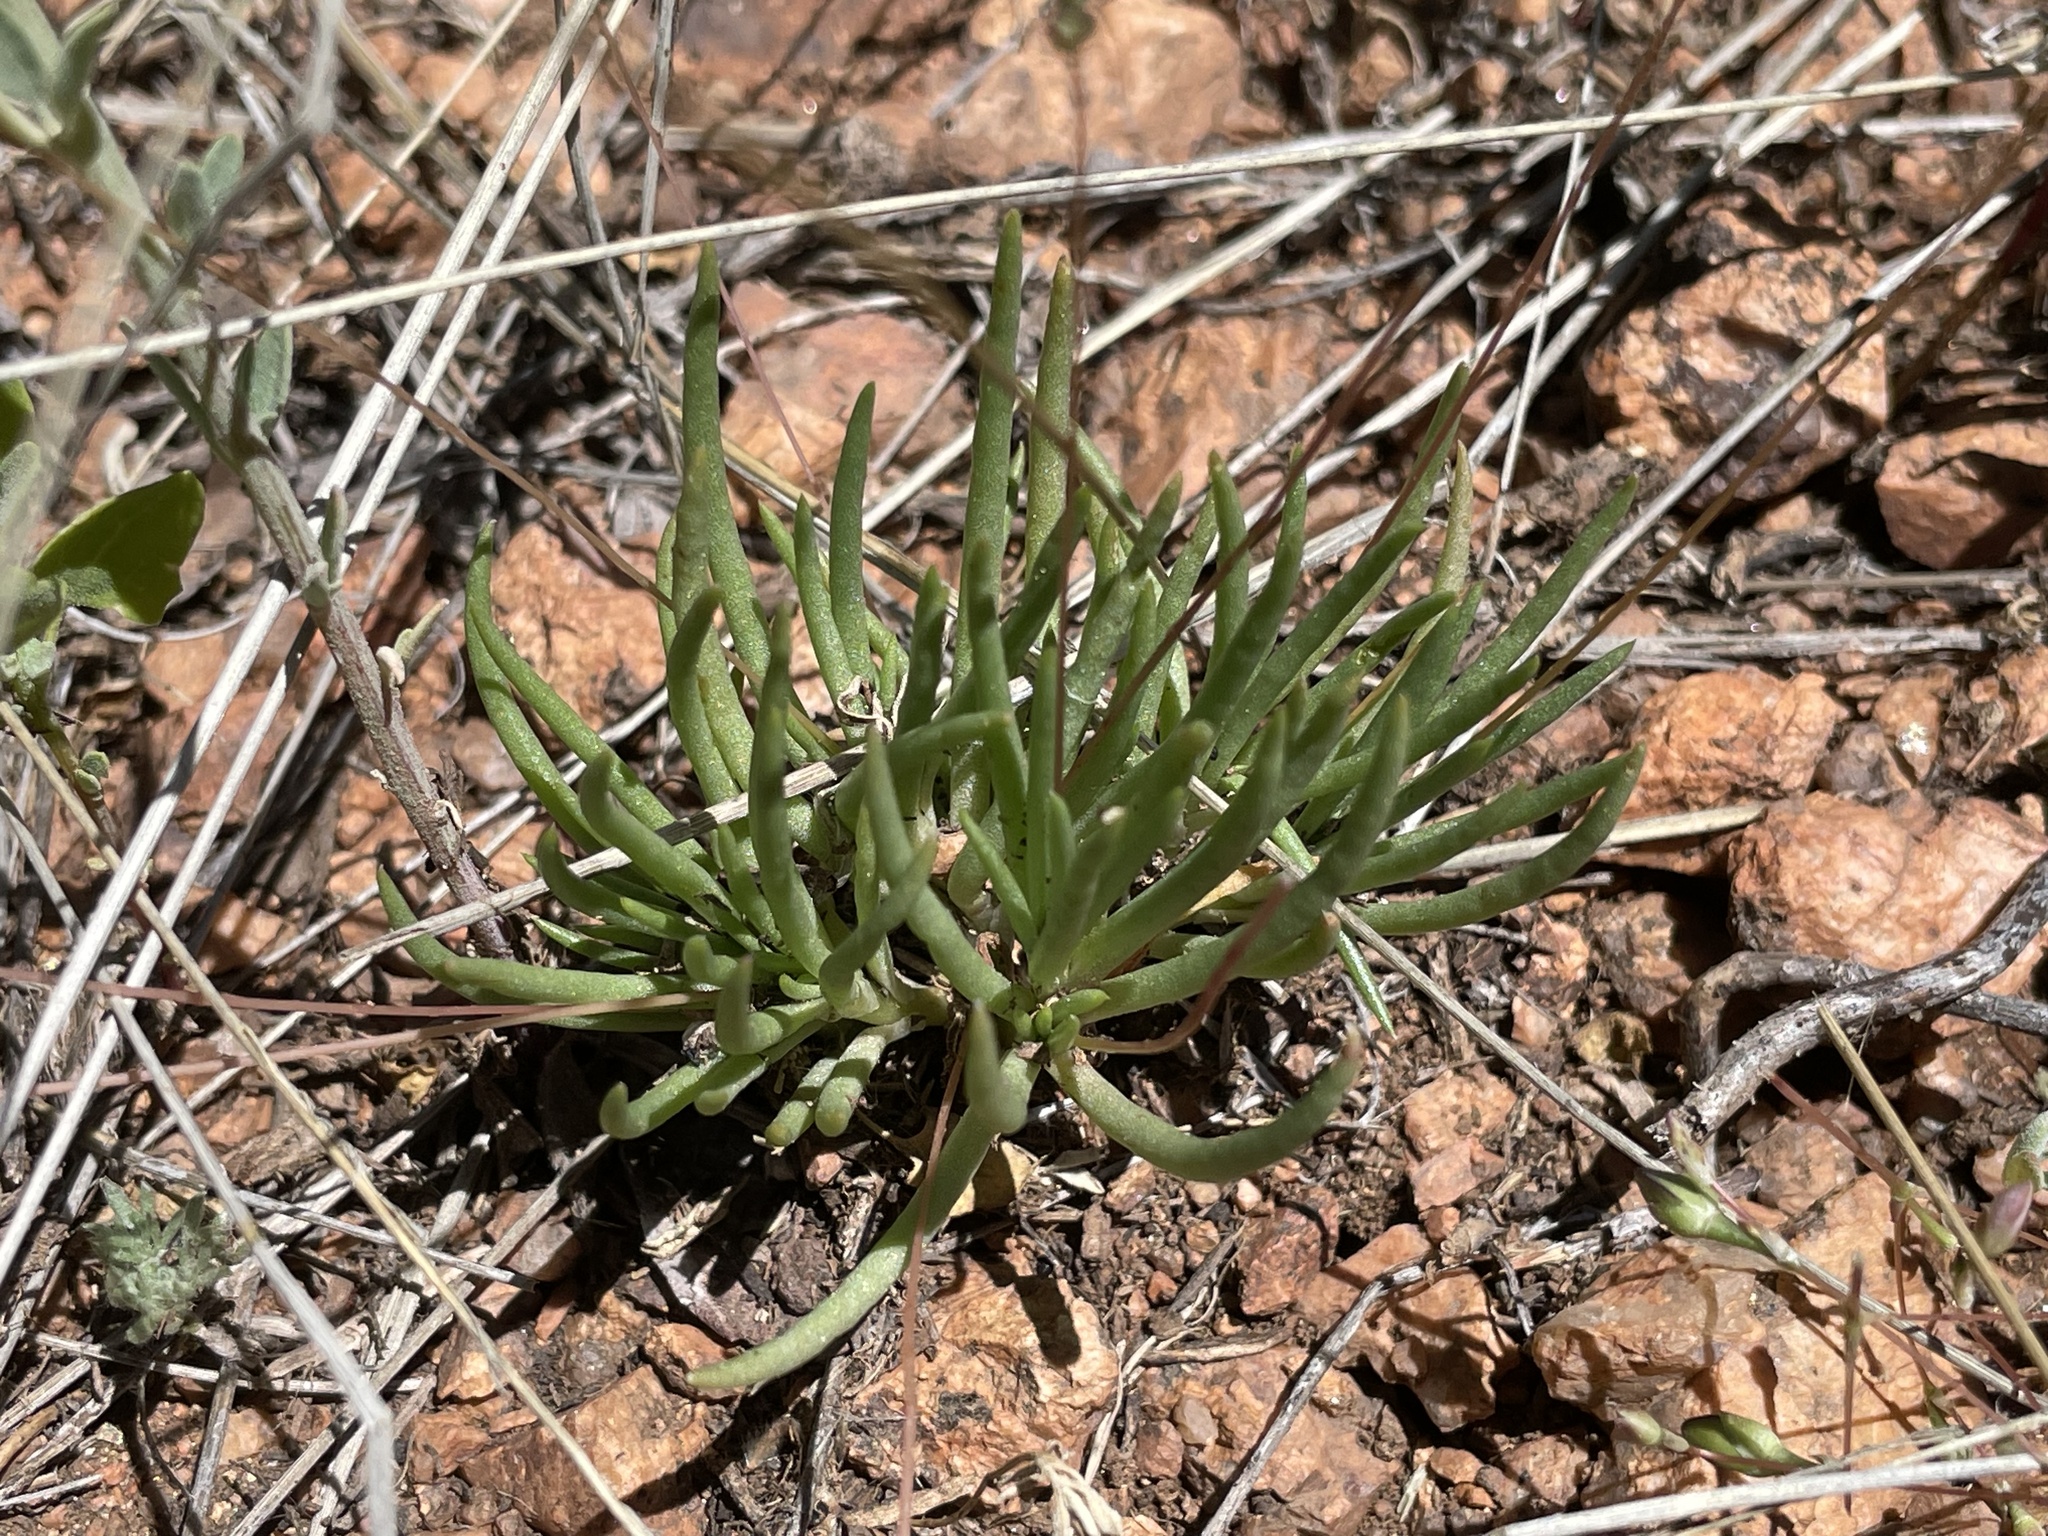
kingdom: Plantae
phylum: Tracheophyta
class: Magnoliopsida
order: Caryophyllales
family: Montiaceae
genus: Phemeranthus
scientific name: Phemeranthus confertiflorus
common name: New mexico fameflower
